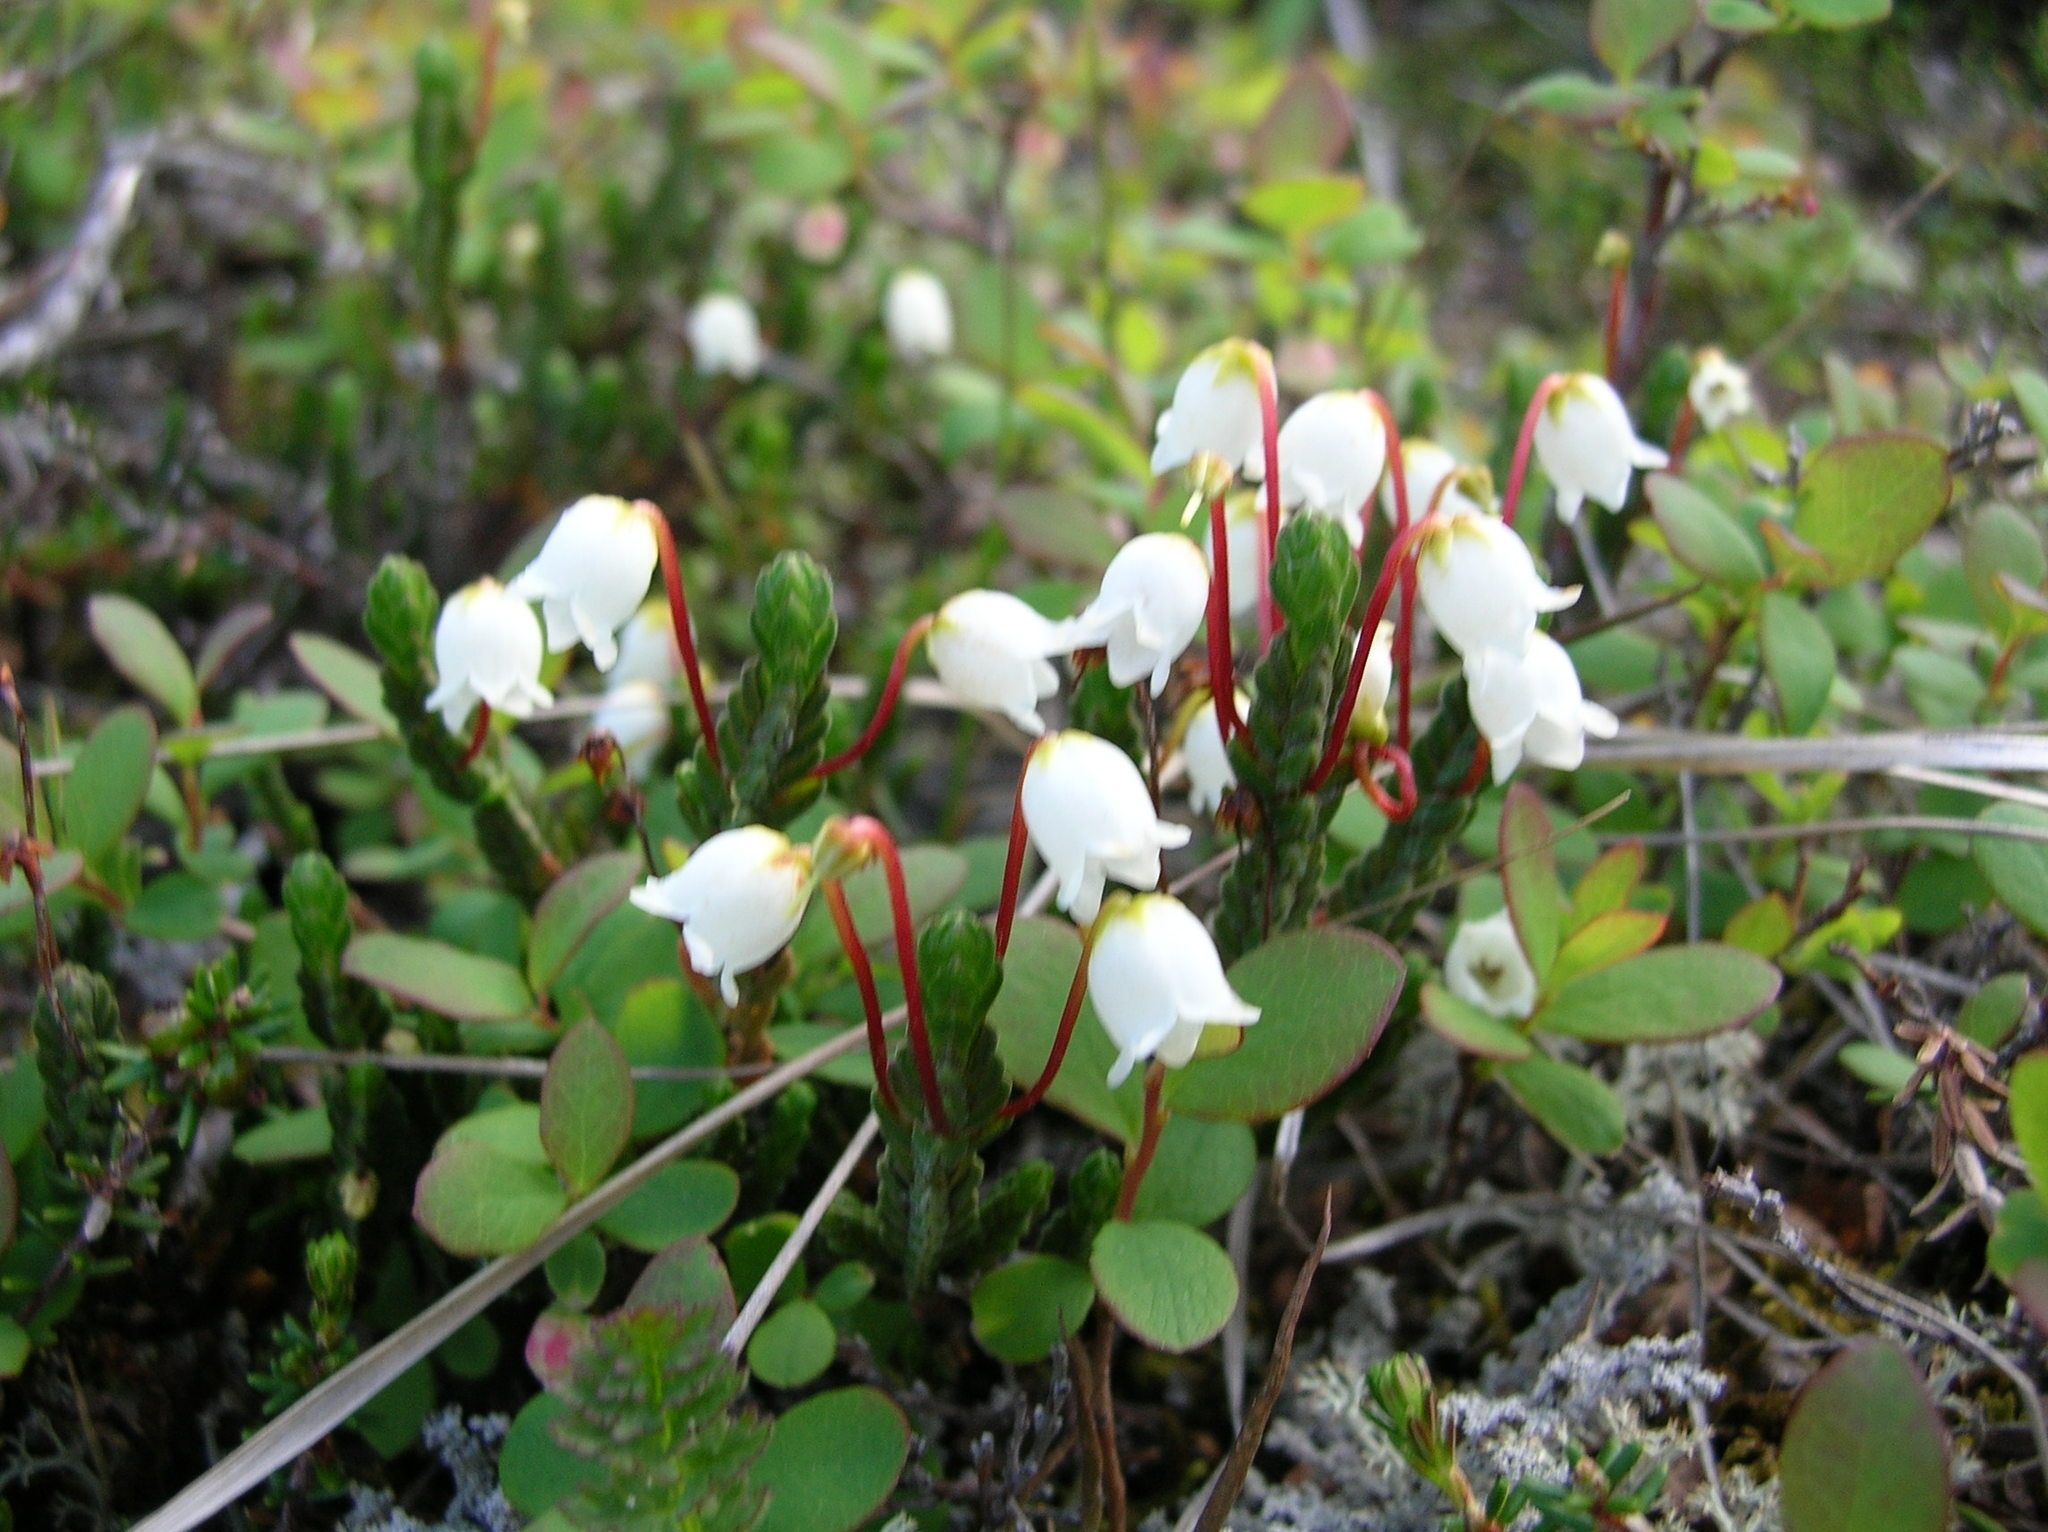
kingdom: Plantae
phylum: Tracheophyta
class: Magnoliopsida
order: Ericales
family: Ericaceae
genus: Cassiope
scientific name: Cassiope tetragona
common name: Arctic bell heather
